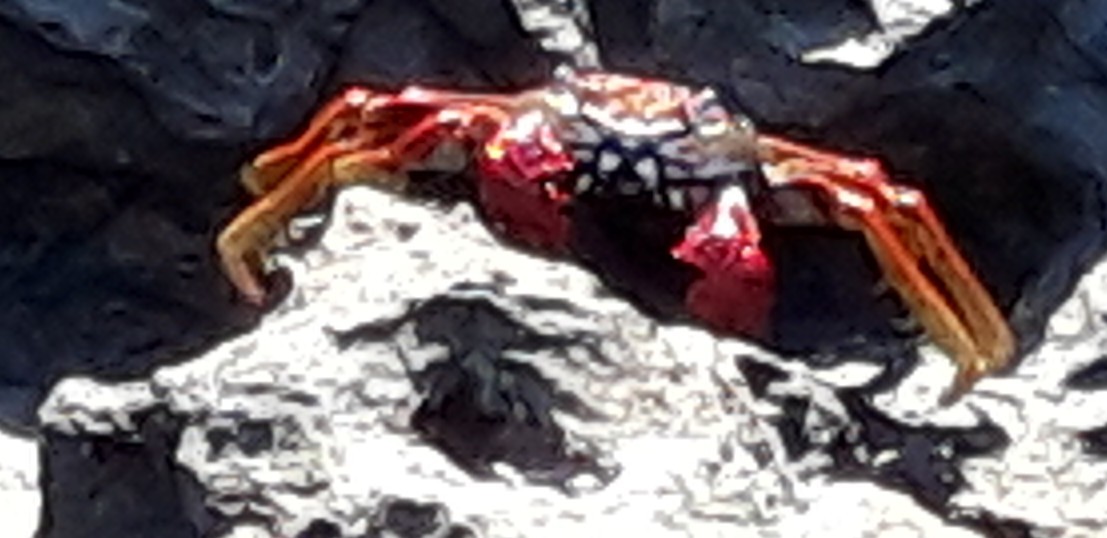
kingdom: Animalia
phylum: Arthropoda
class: Malacostraca
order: Decapoda
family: Grapsidae
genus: Grapsus
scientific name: Grapsus adscensionis
